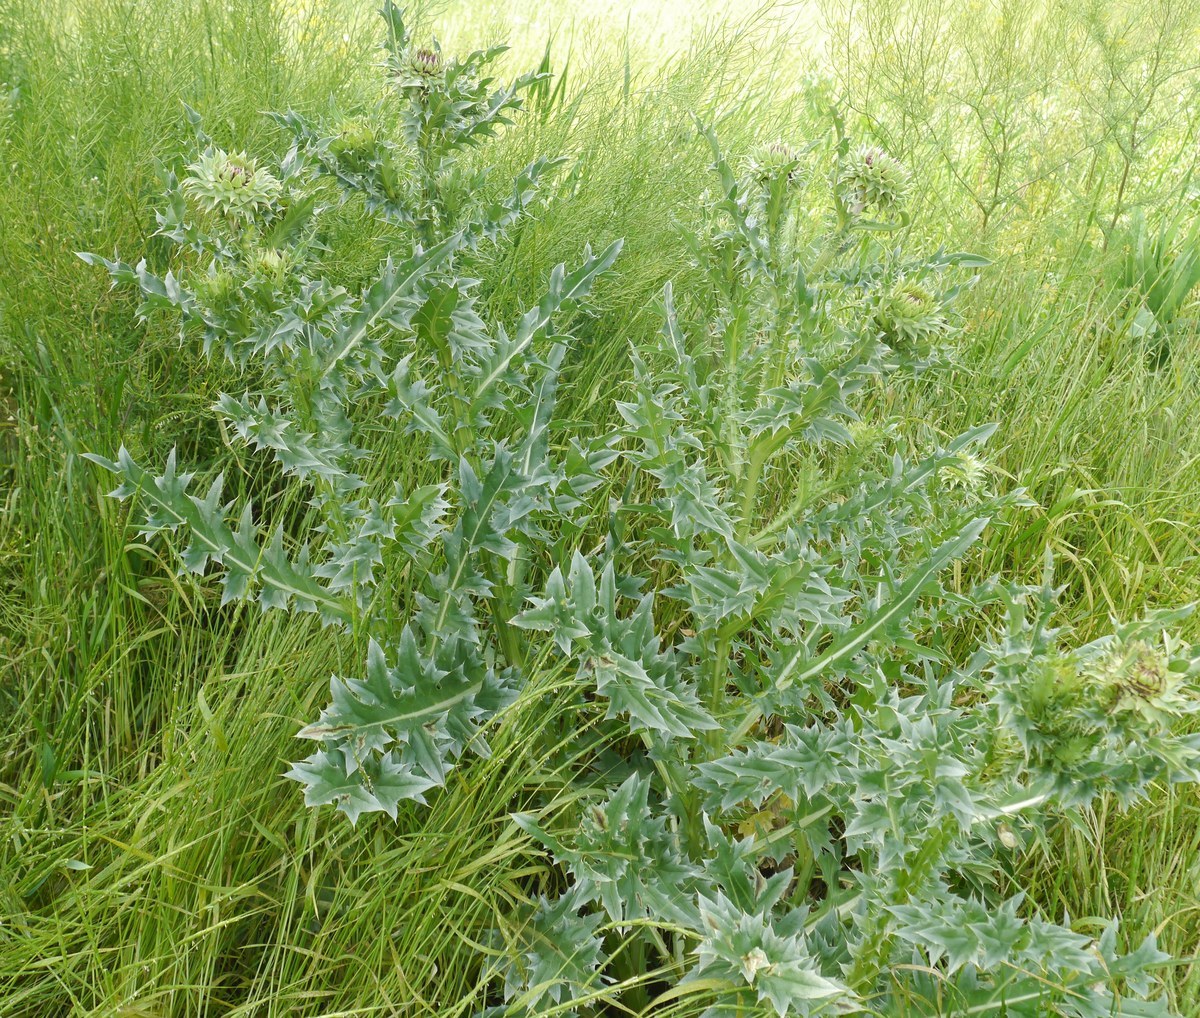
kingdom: Plantae
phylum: Tracheophyta
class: Magnoliopsida
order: Asterales
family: Asteraceae
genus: Carduus
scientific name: Carduus nutans
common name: Musk thistle
